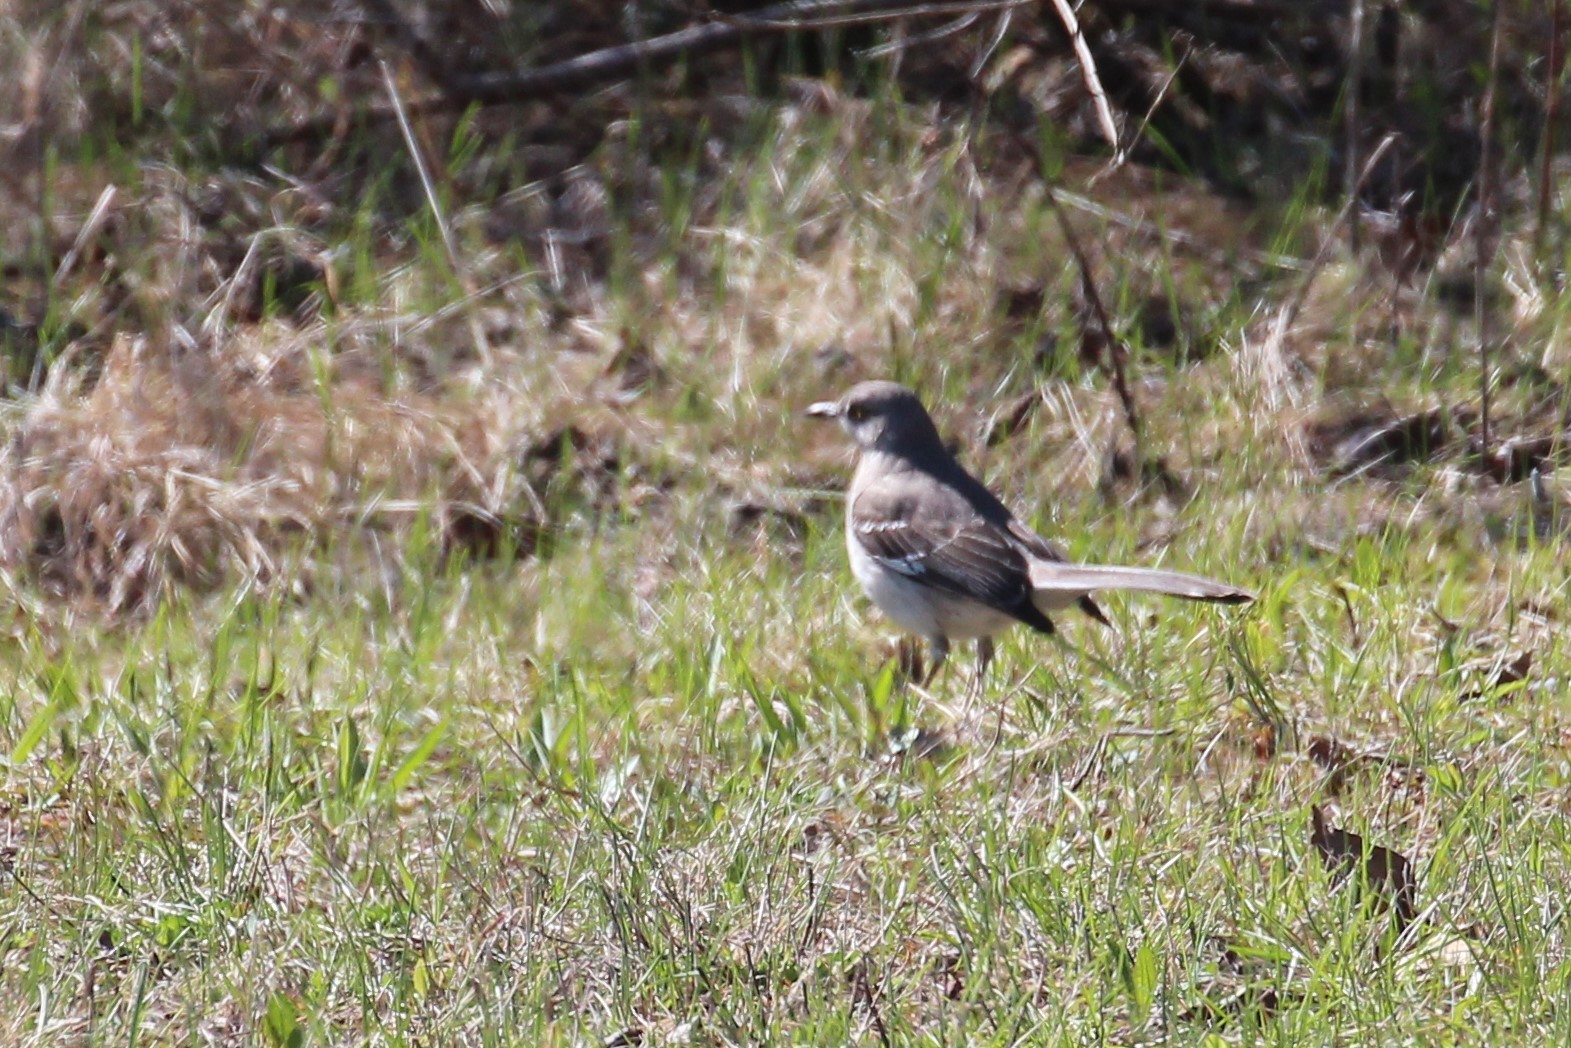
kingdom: Animalia
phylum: Chordata
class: Aves
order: Passeriformes
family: Mimidae
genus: Mimus
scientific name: Mimus polyglottos
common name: Northern mockingbird
